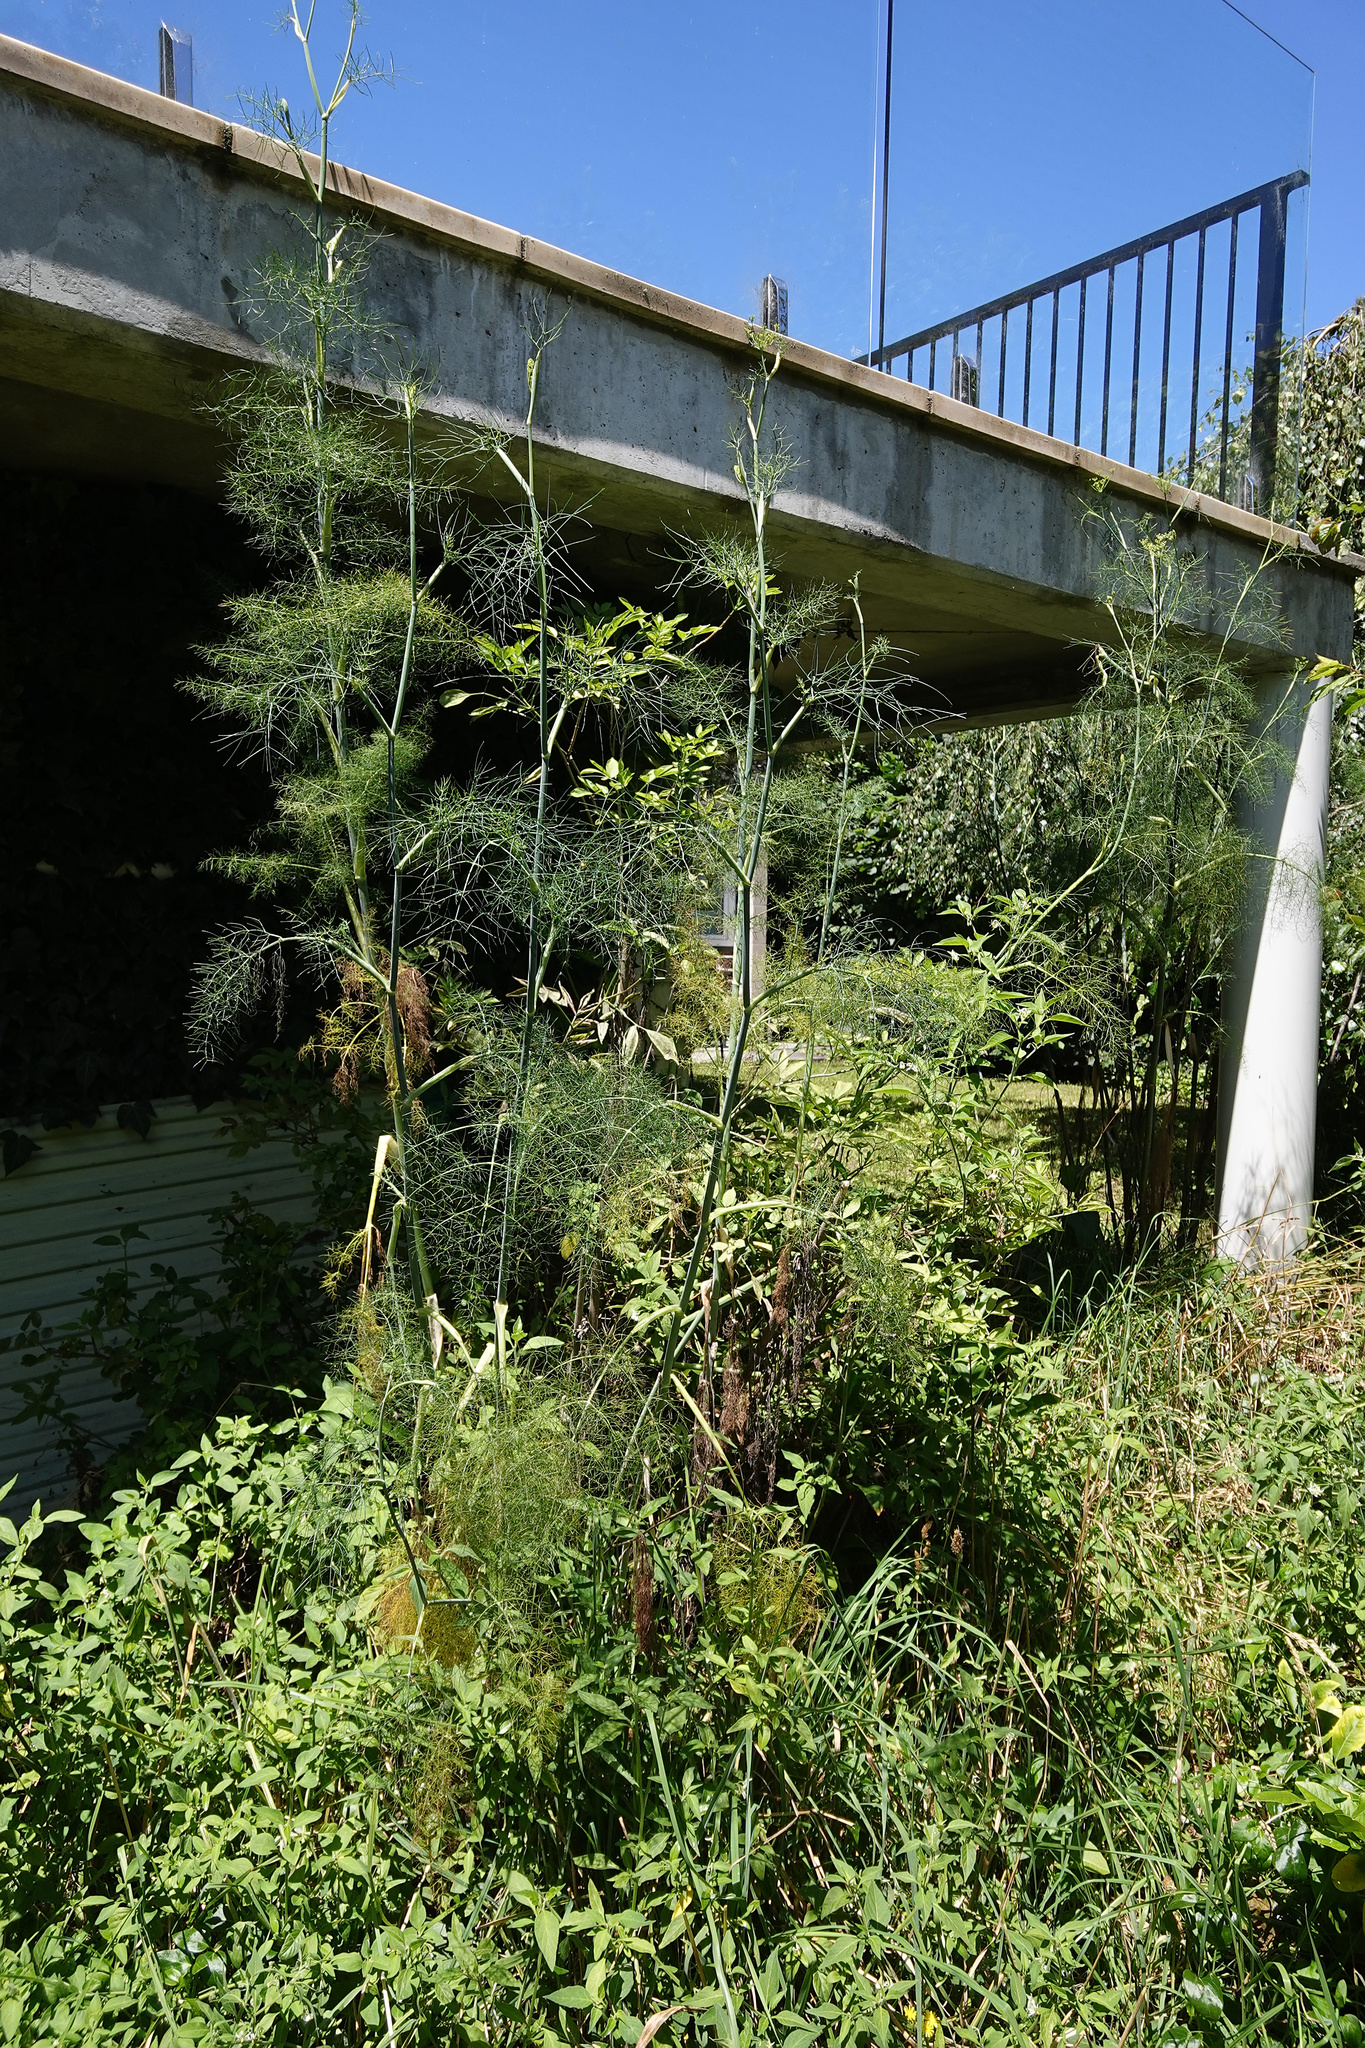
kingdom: Plantae
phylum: Tracheophyta
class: Magnoliopsida
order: Apiales
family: Apiaceae
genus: Foeniculum
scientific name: Foeniculum vulgare
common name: Fennel
